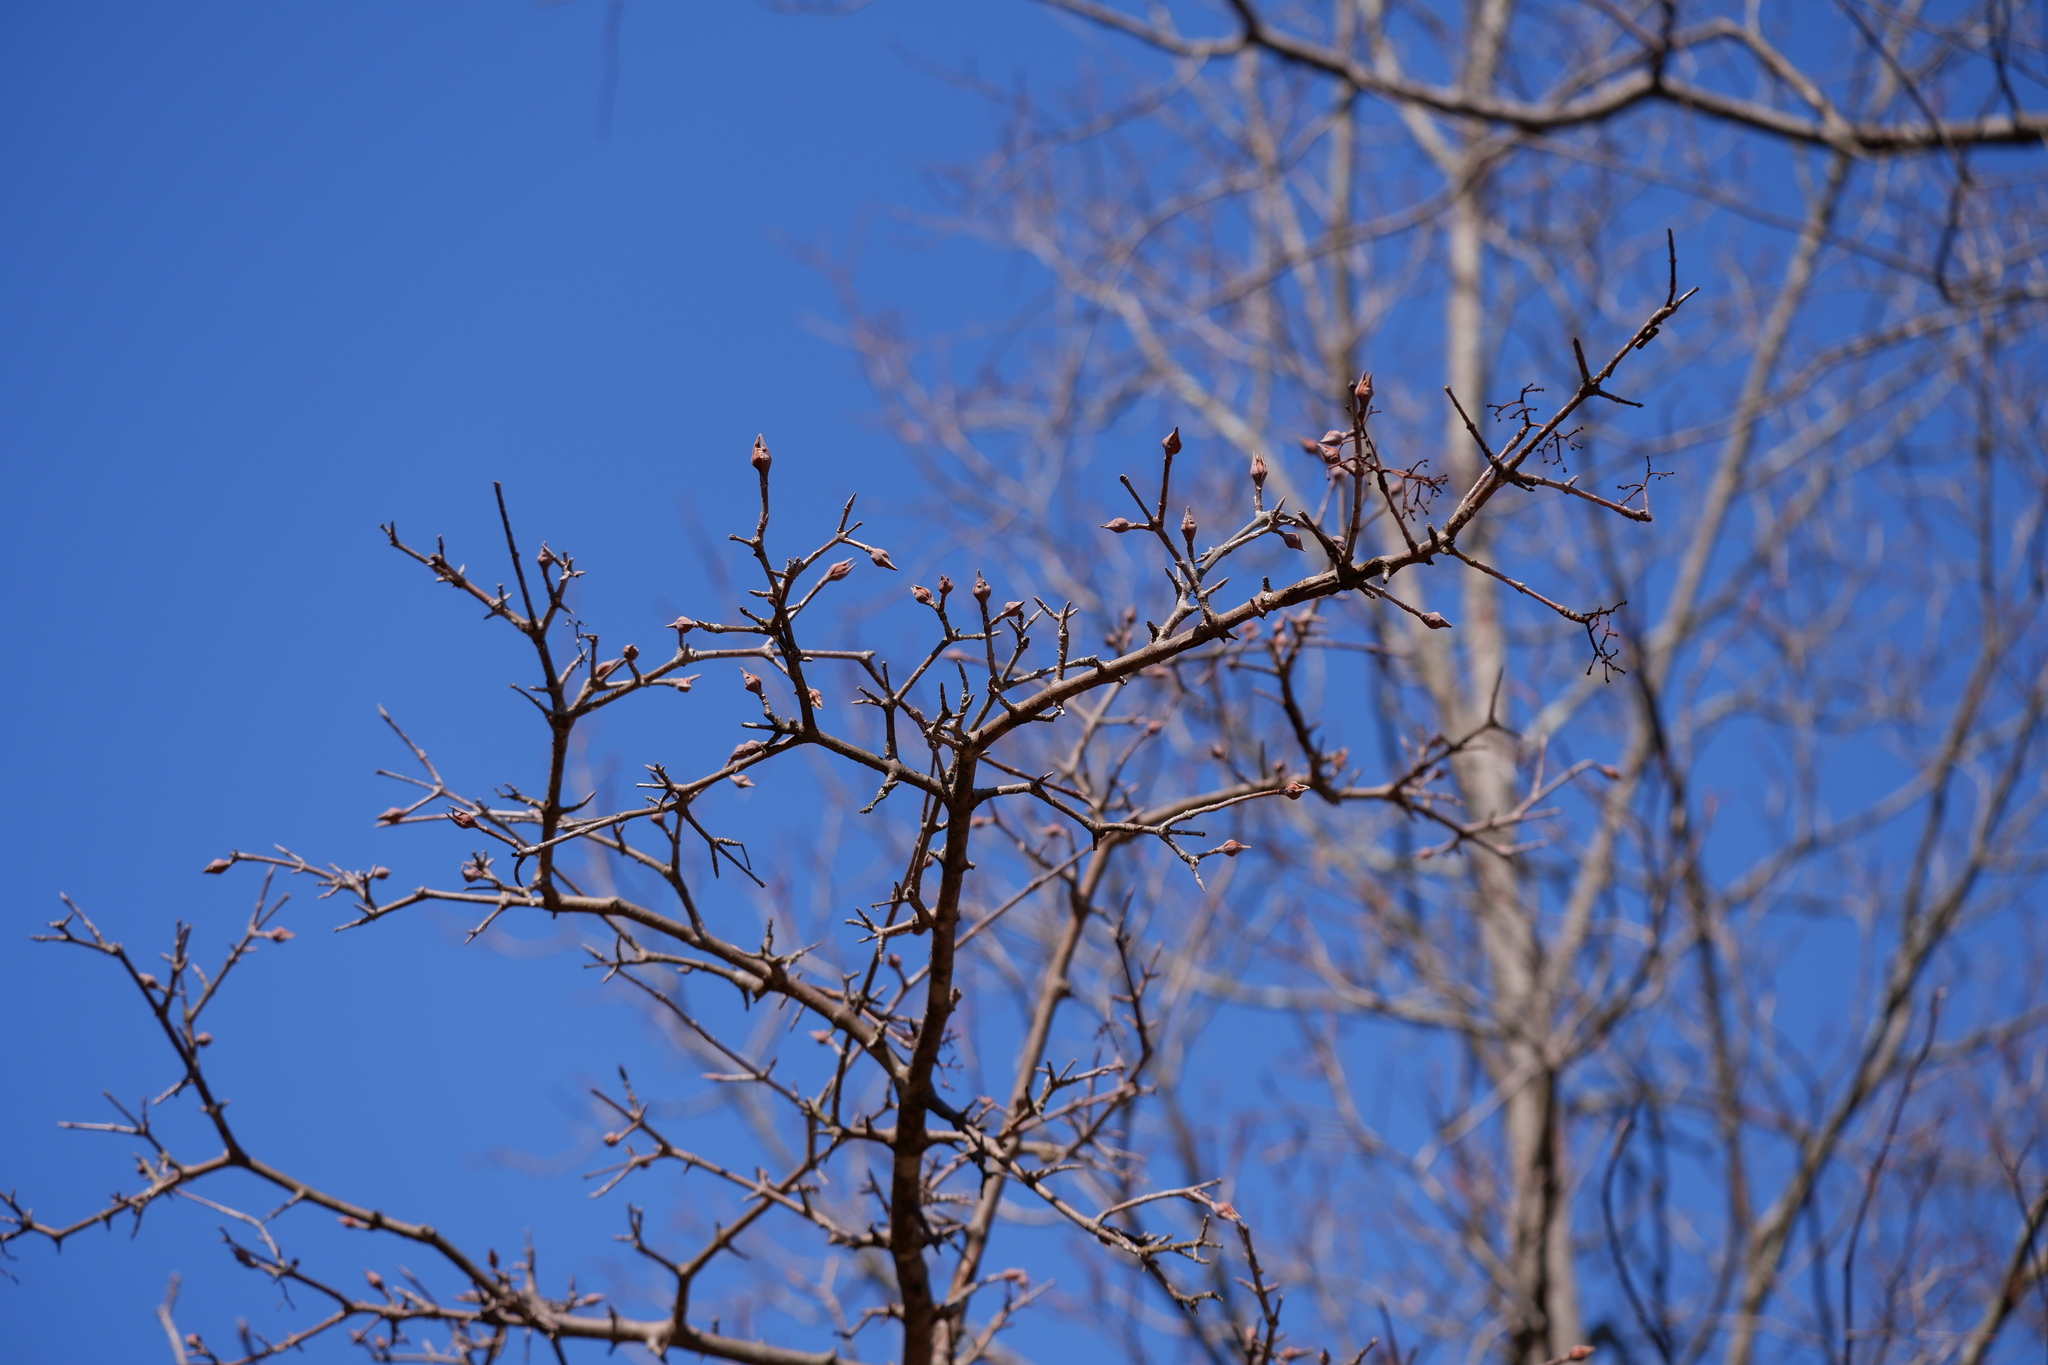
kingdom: Plantae
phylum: Tracheophyta
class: Magnoliopsida
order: Dipsacales
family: Viburnaceae
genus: Viburnum
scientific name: Viburnum prunifolium
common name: Black haw
